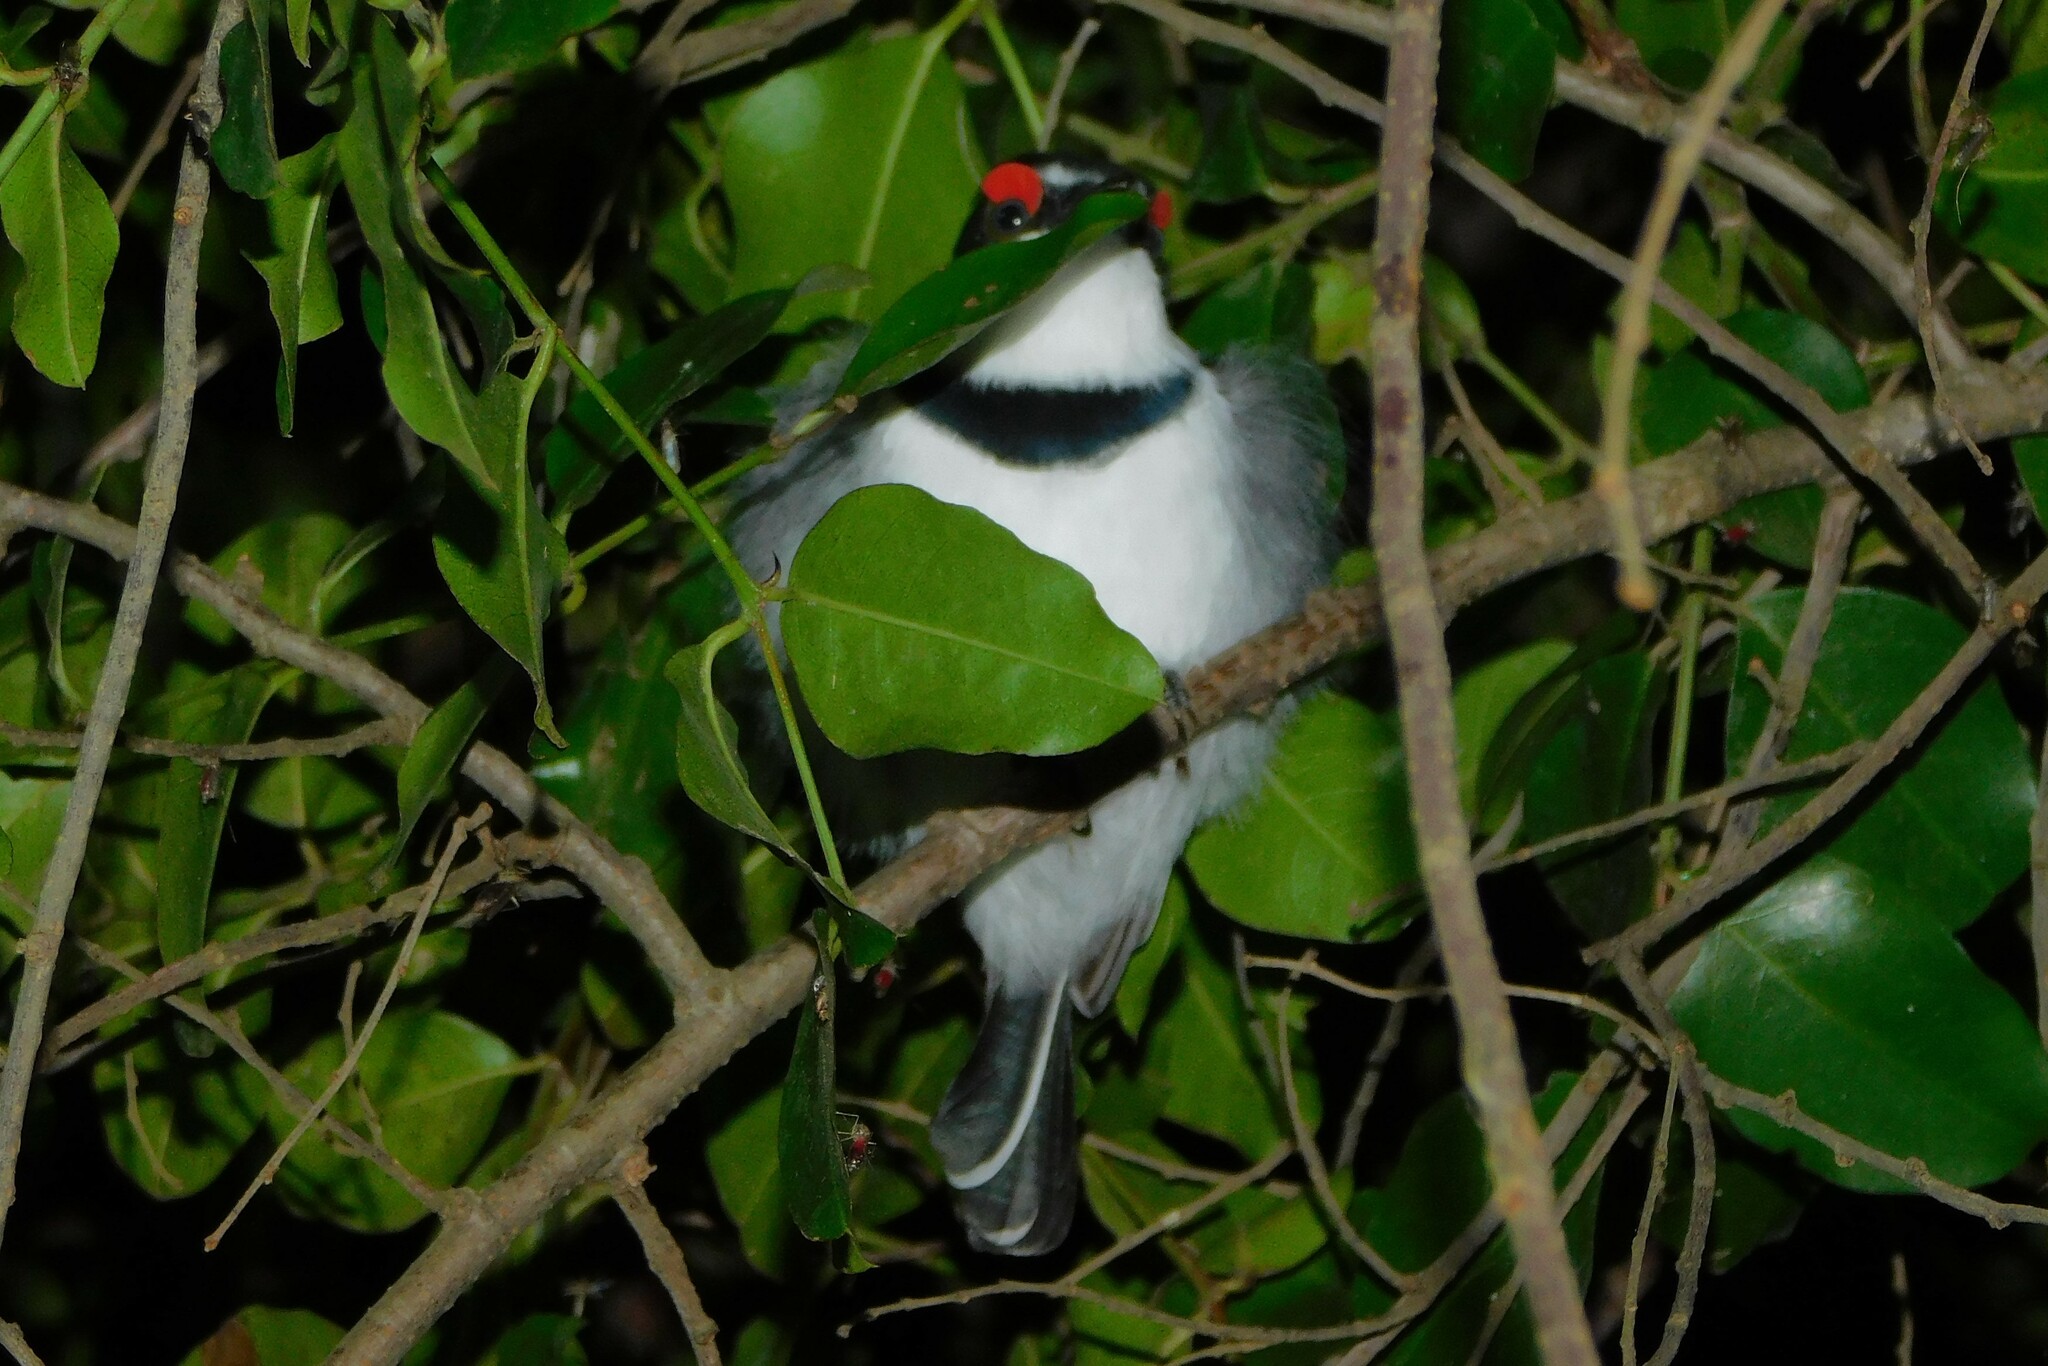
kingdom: Animalia
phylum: Chordata
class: Aves
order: Passeriformes
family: Platysteiridae
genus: Platysteira
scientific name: Platysteira cyanea
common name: Brown-throated wattle-eye
